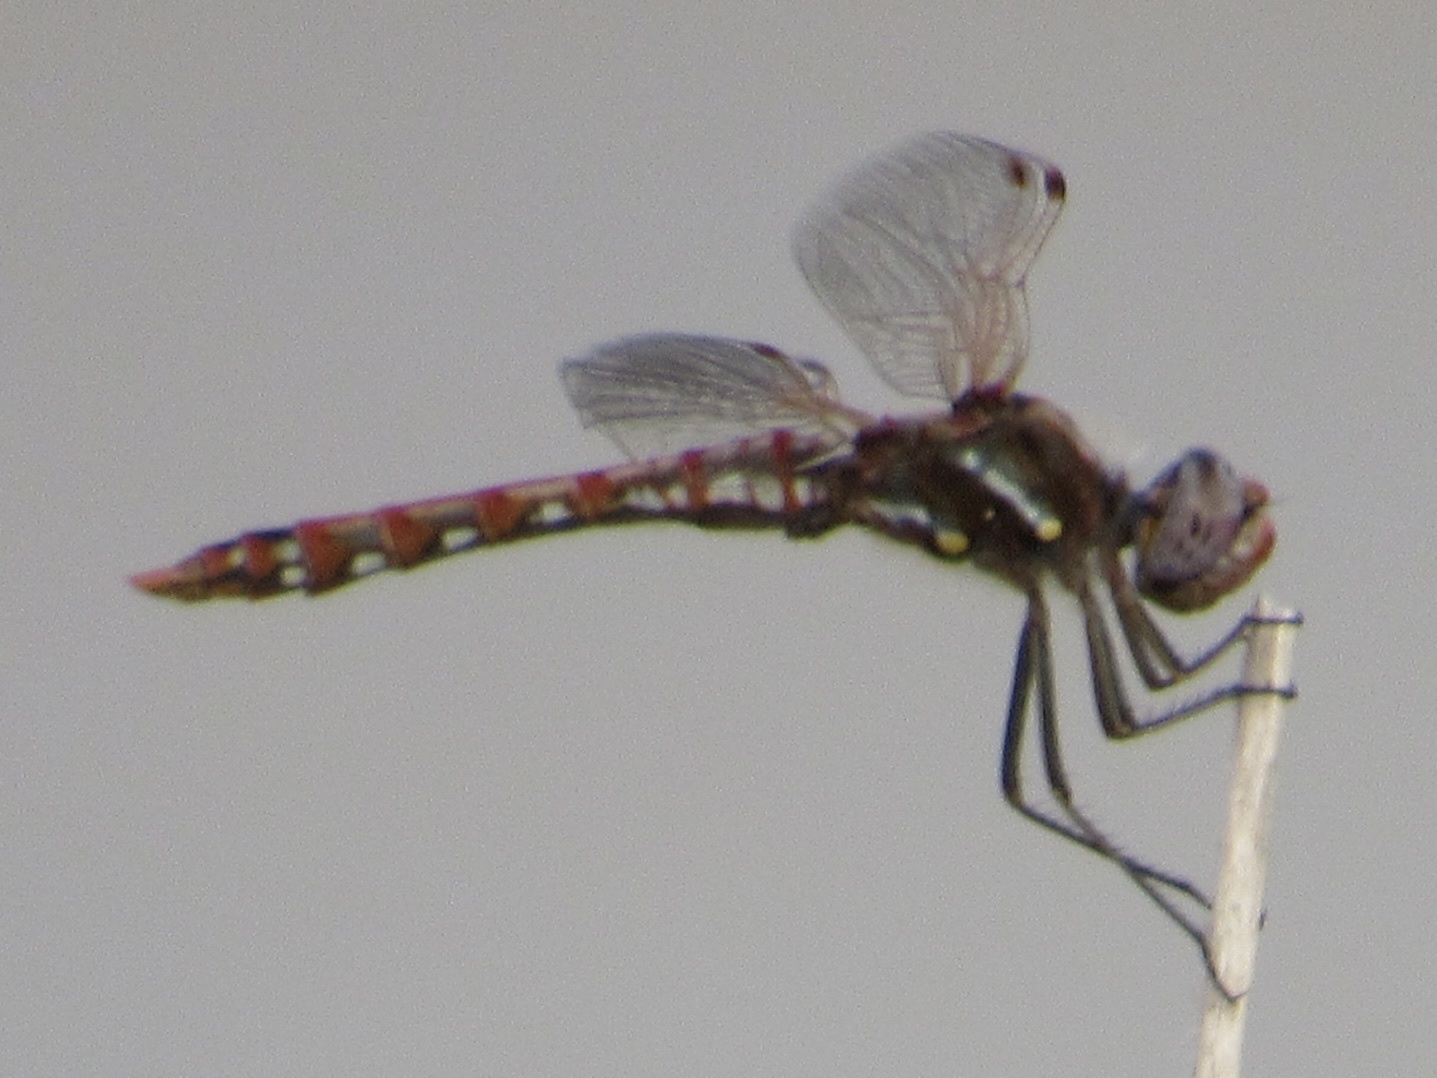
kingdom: Animalia
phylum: Arthropoda
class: Insecta
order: Odonata
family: Libellulidae
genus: Sympetrum
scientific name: Sympetrum corruptum
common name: Variegated meadowhawk
